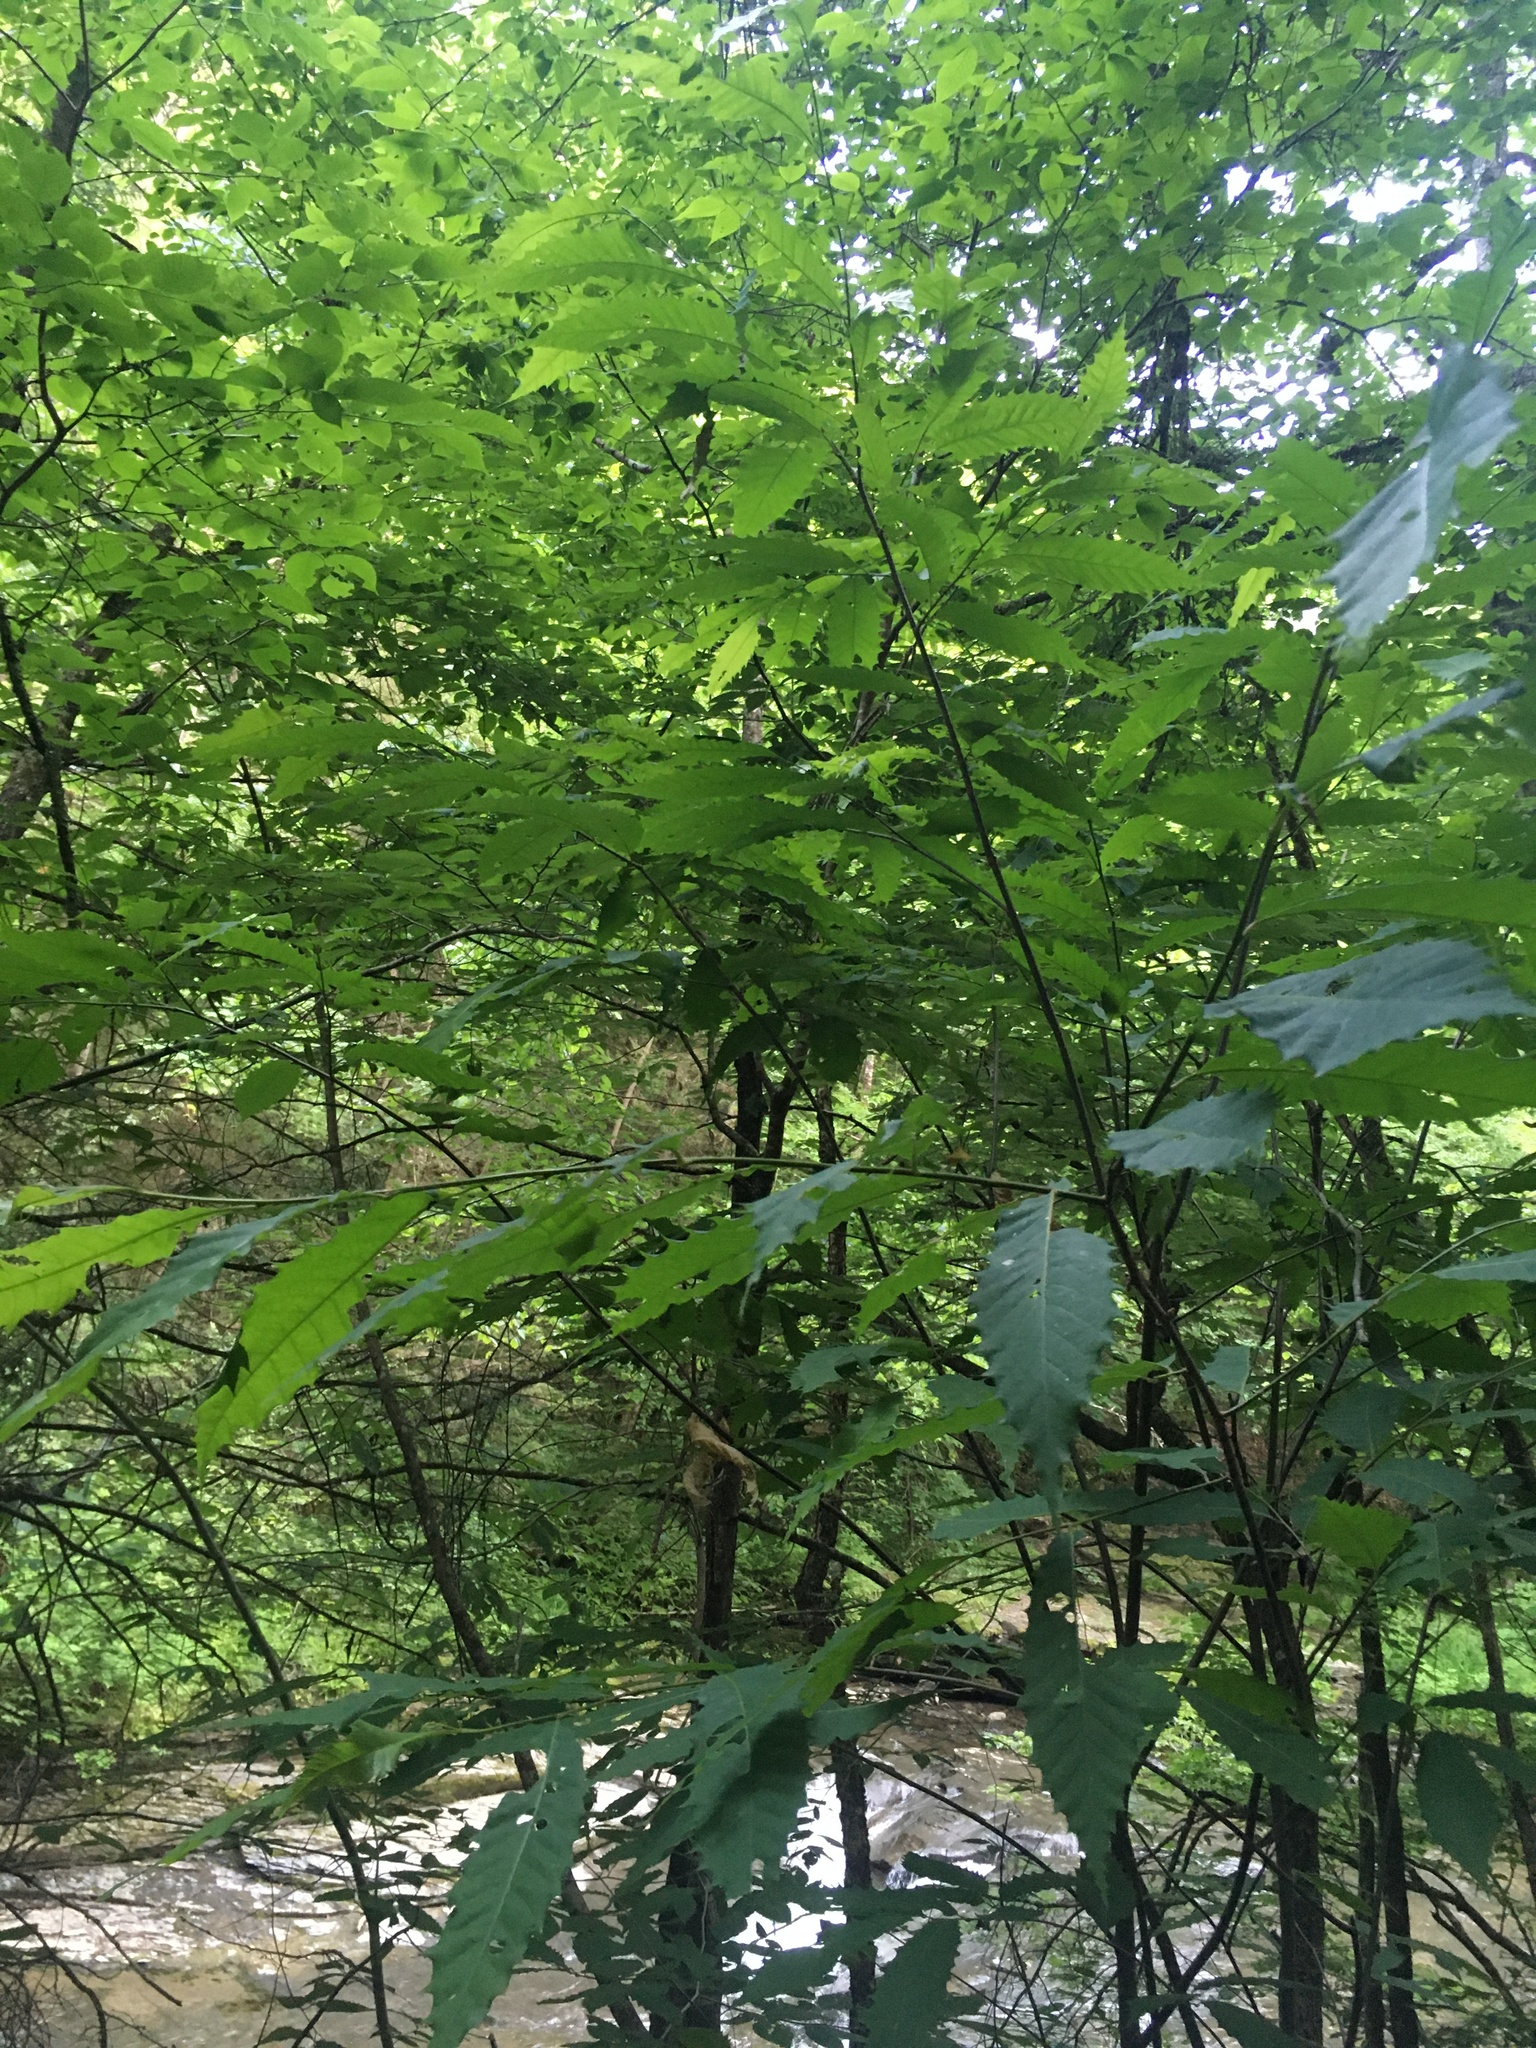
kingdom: Plantae
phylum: Tracheophyta
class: Magnoliopsida
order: Fagales
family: Fagaceae
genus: Castanea
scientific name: Castanea dentata
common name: American chestnut
